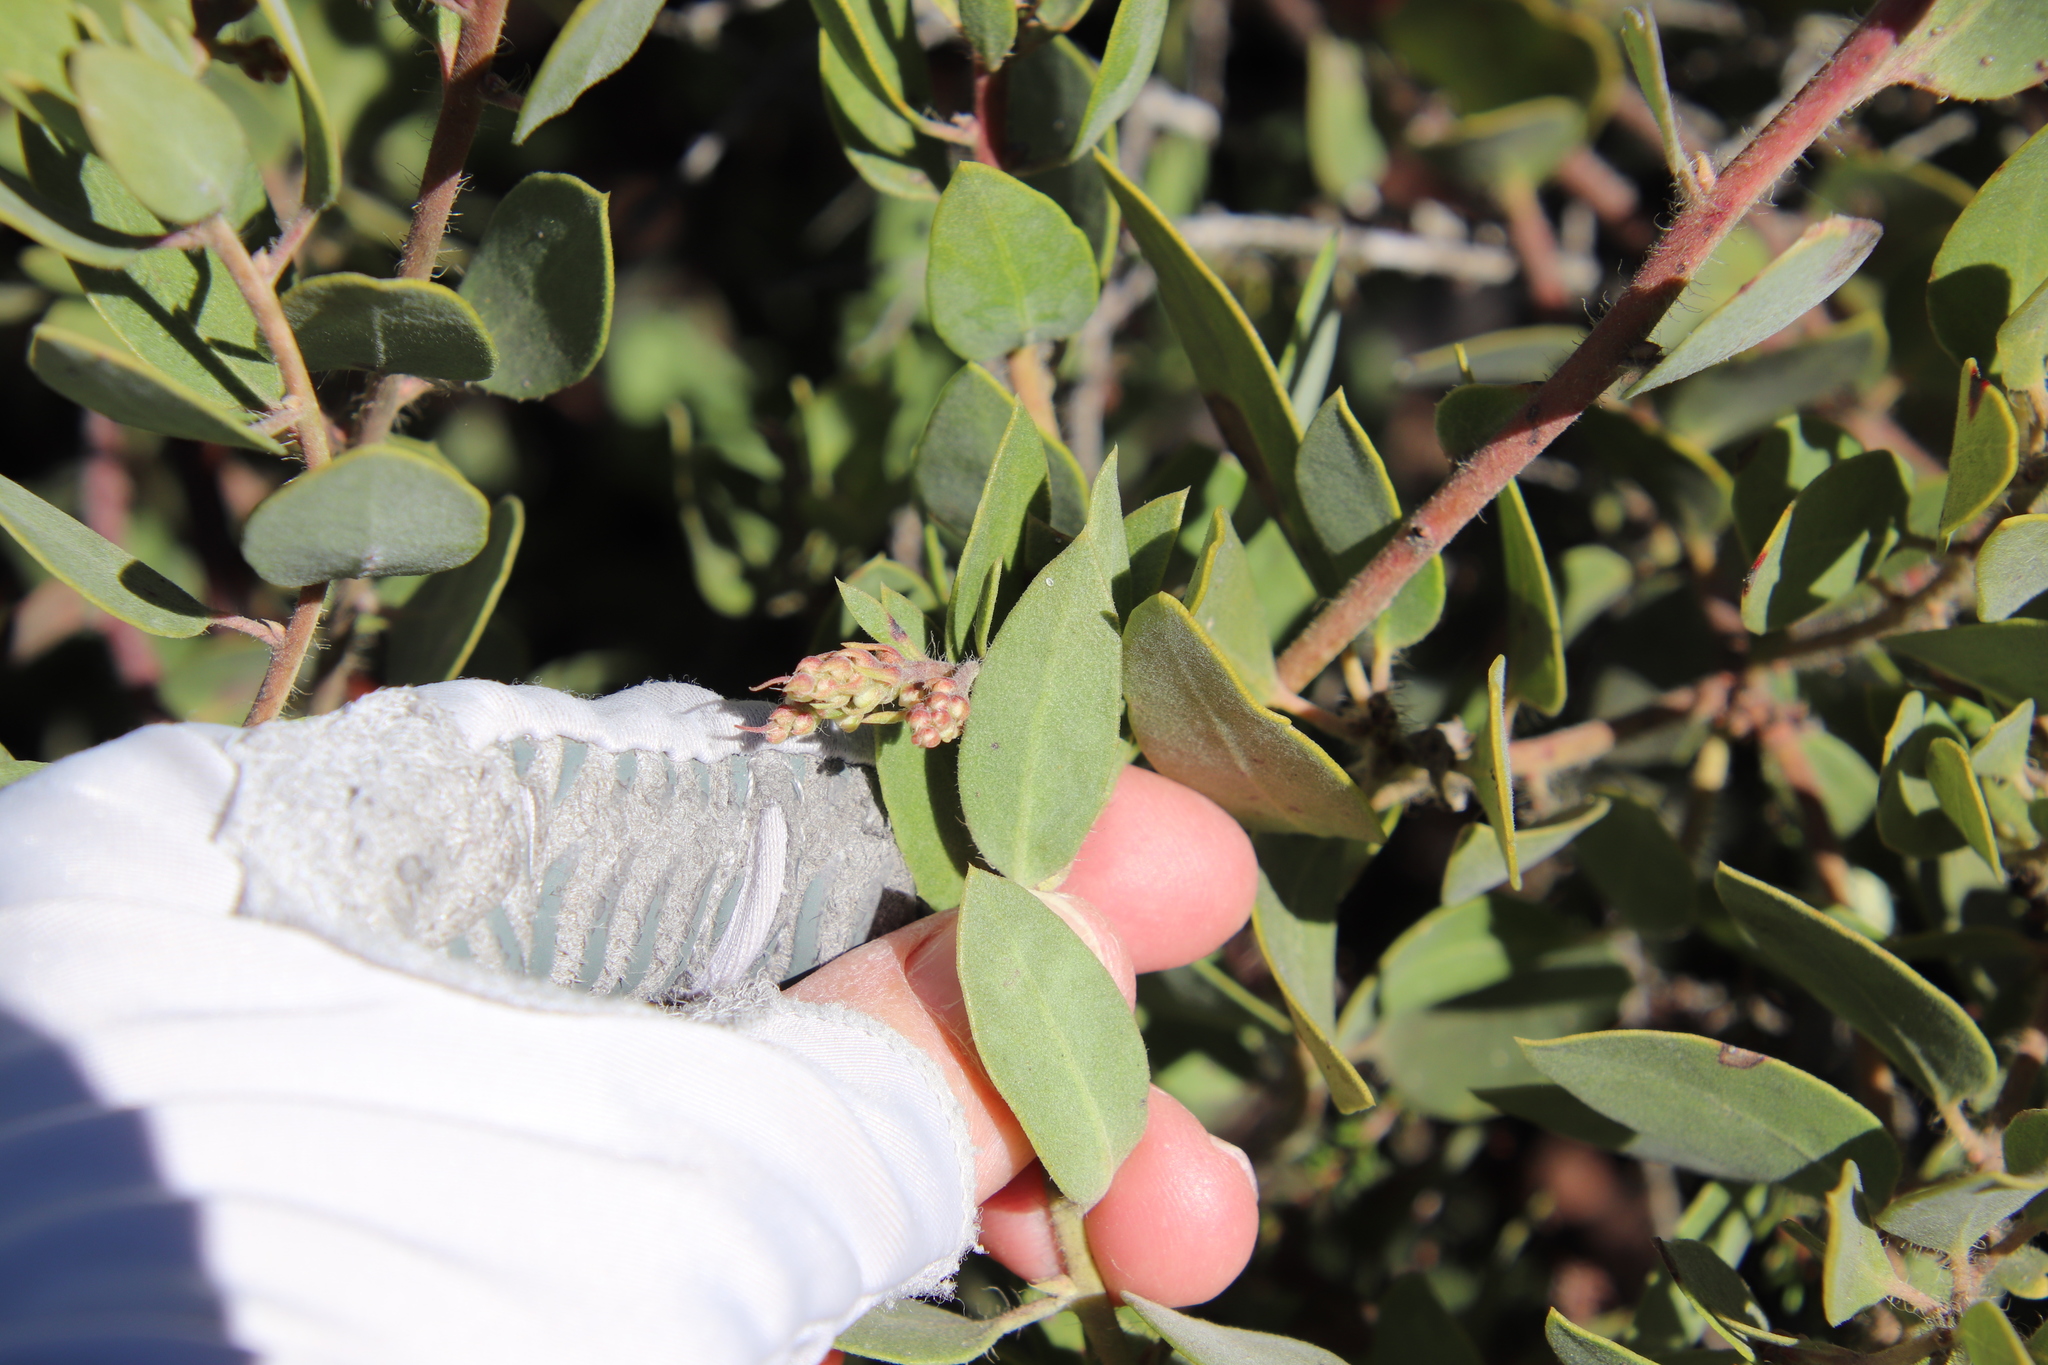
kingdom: Plantae
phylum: Tracheophyta
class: Magnoliopsida
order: Ericales
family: Ericaceae
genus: Arctostaphylos
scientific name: Arctostaphylos glandulosa
